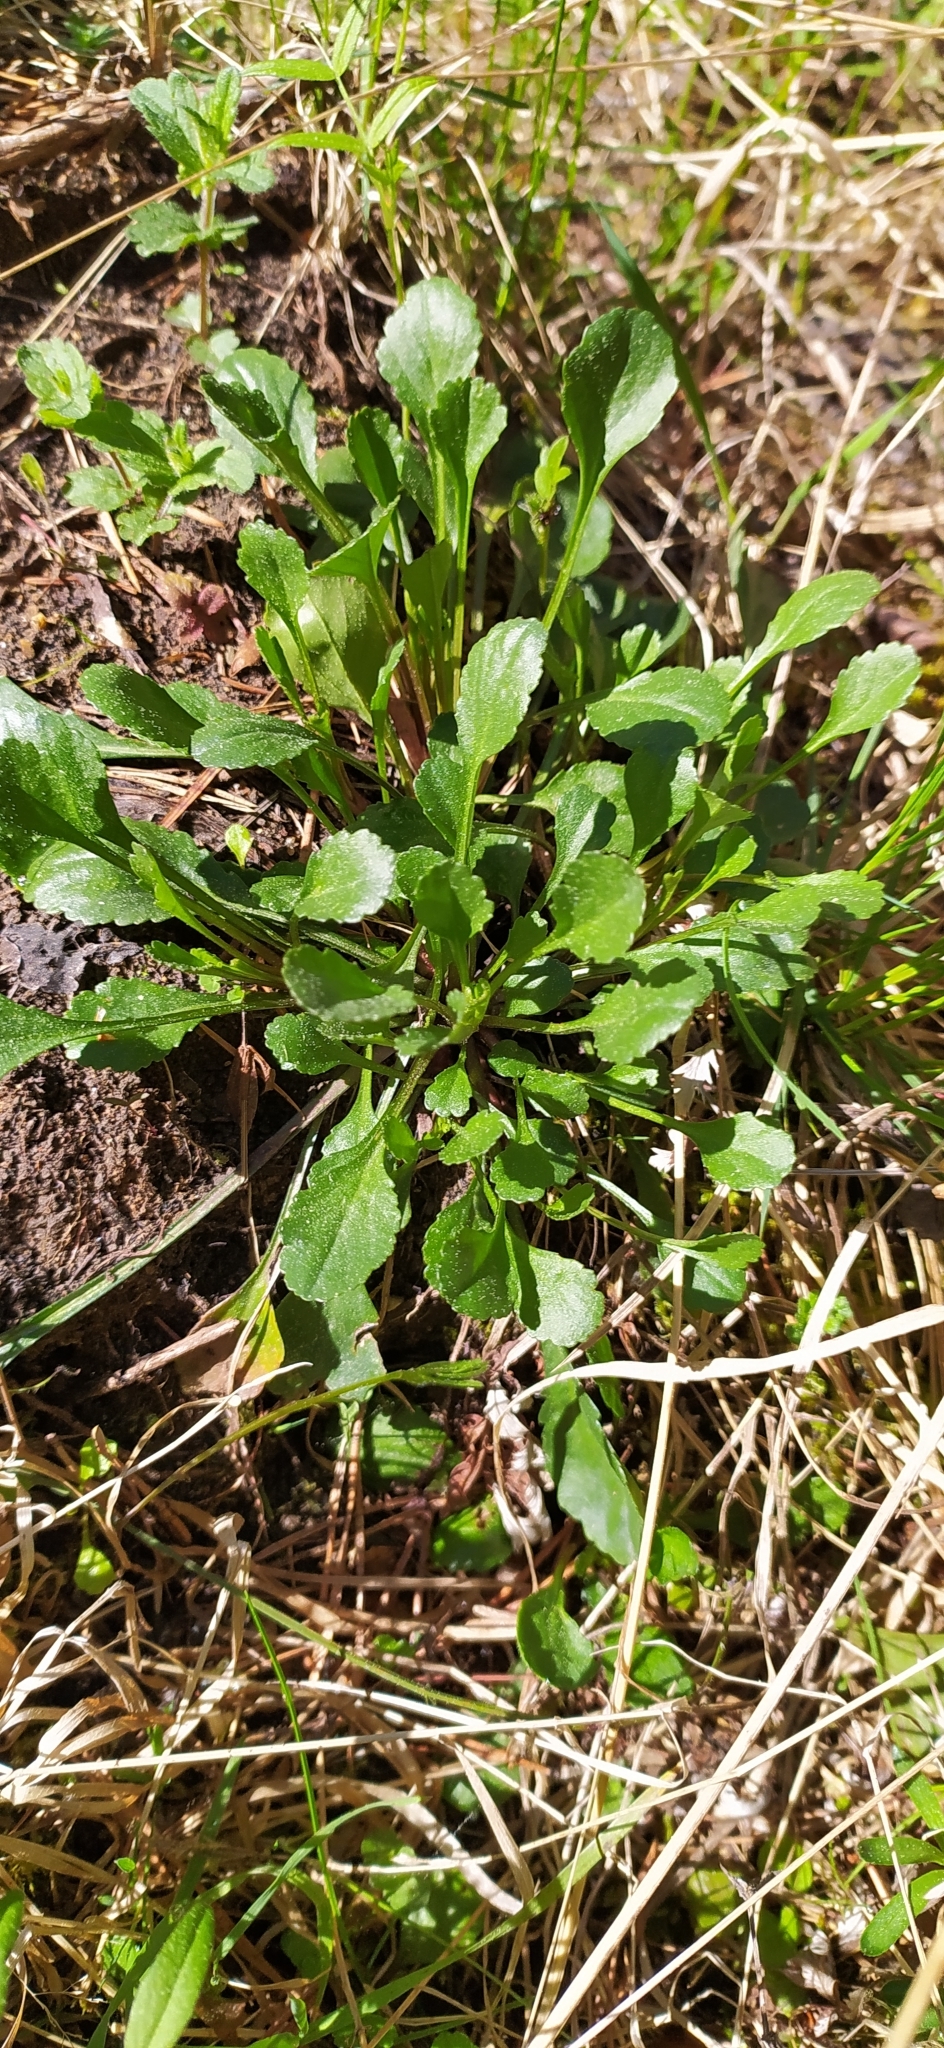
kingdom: Plantae
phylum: Tracheophyta
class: Magnoliopsida
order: Asterales
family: Asteraceae
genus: Leucanthemum
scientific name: Leucanthemum ircutianum
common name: Daisy
